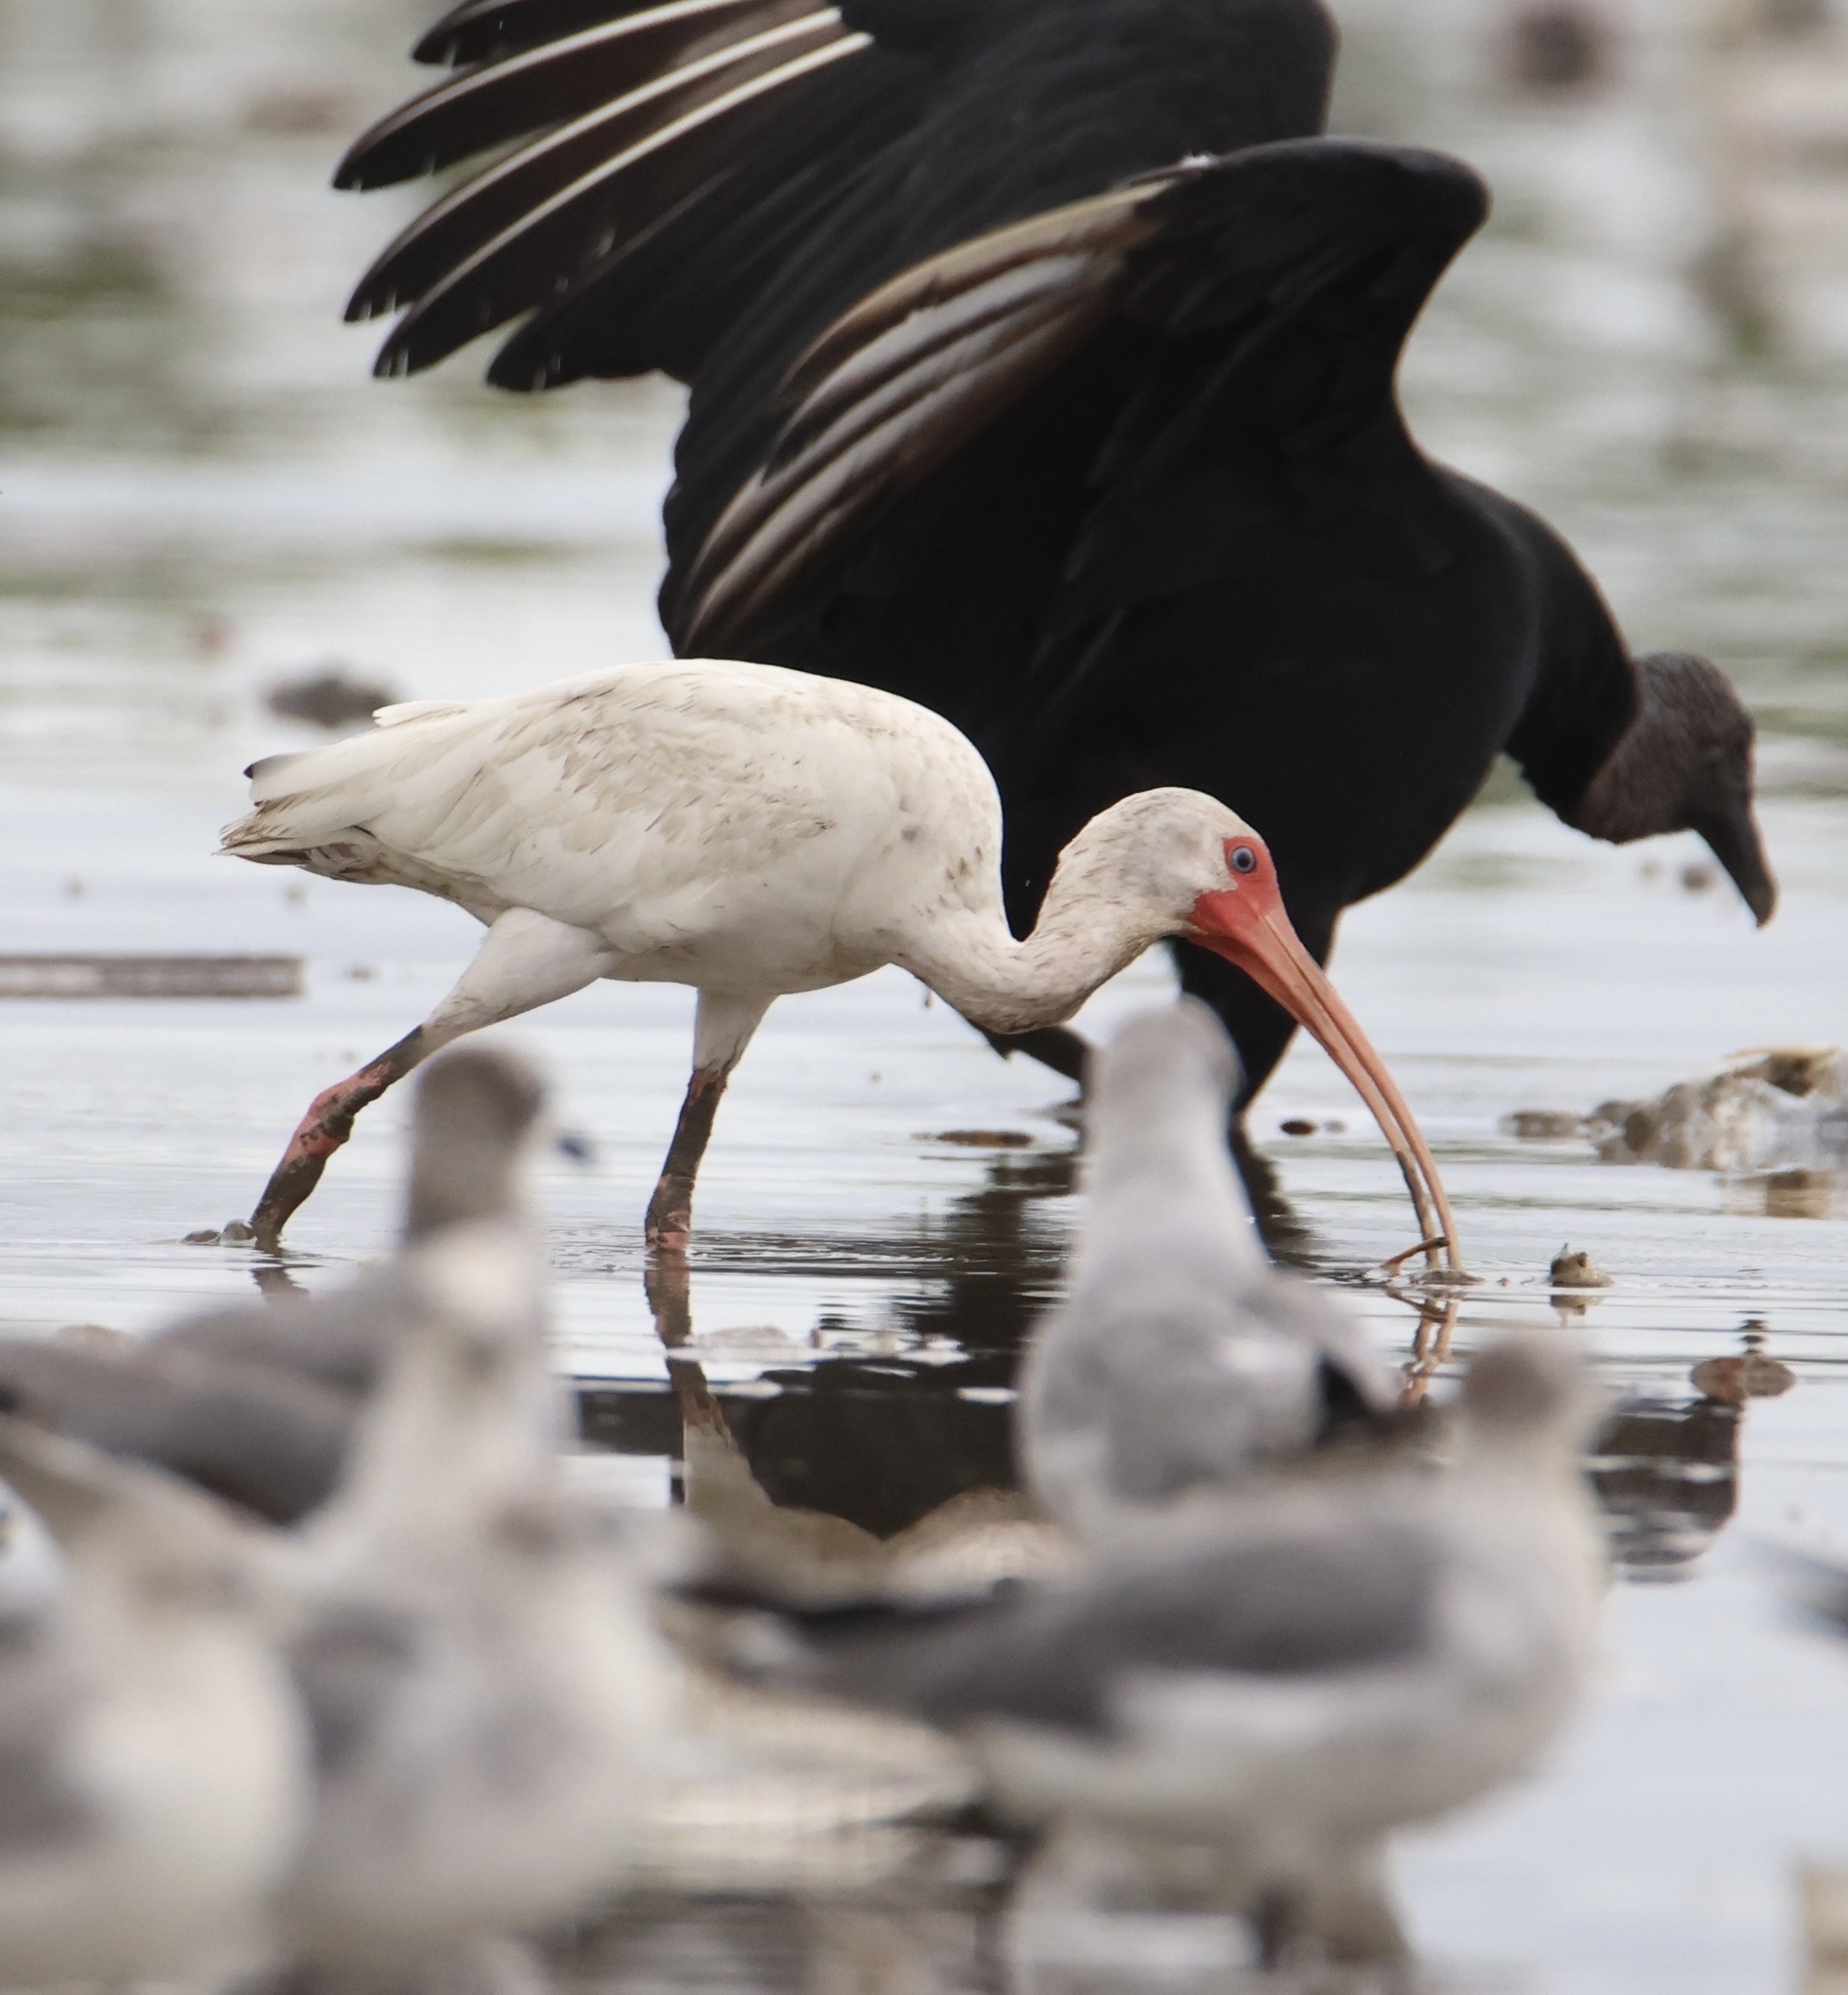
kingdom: Animalia
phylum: Chordata
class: Aves
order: Pelecaniformes
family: Threskiornithidae
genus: Eudocimus
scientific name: Eudocimus albus
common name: White ibis
